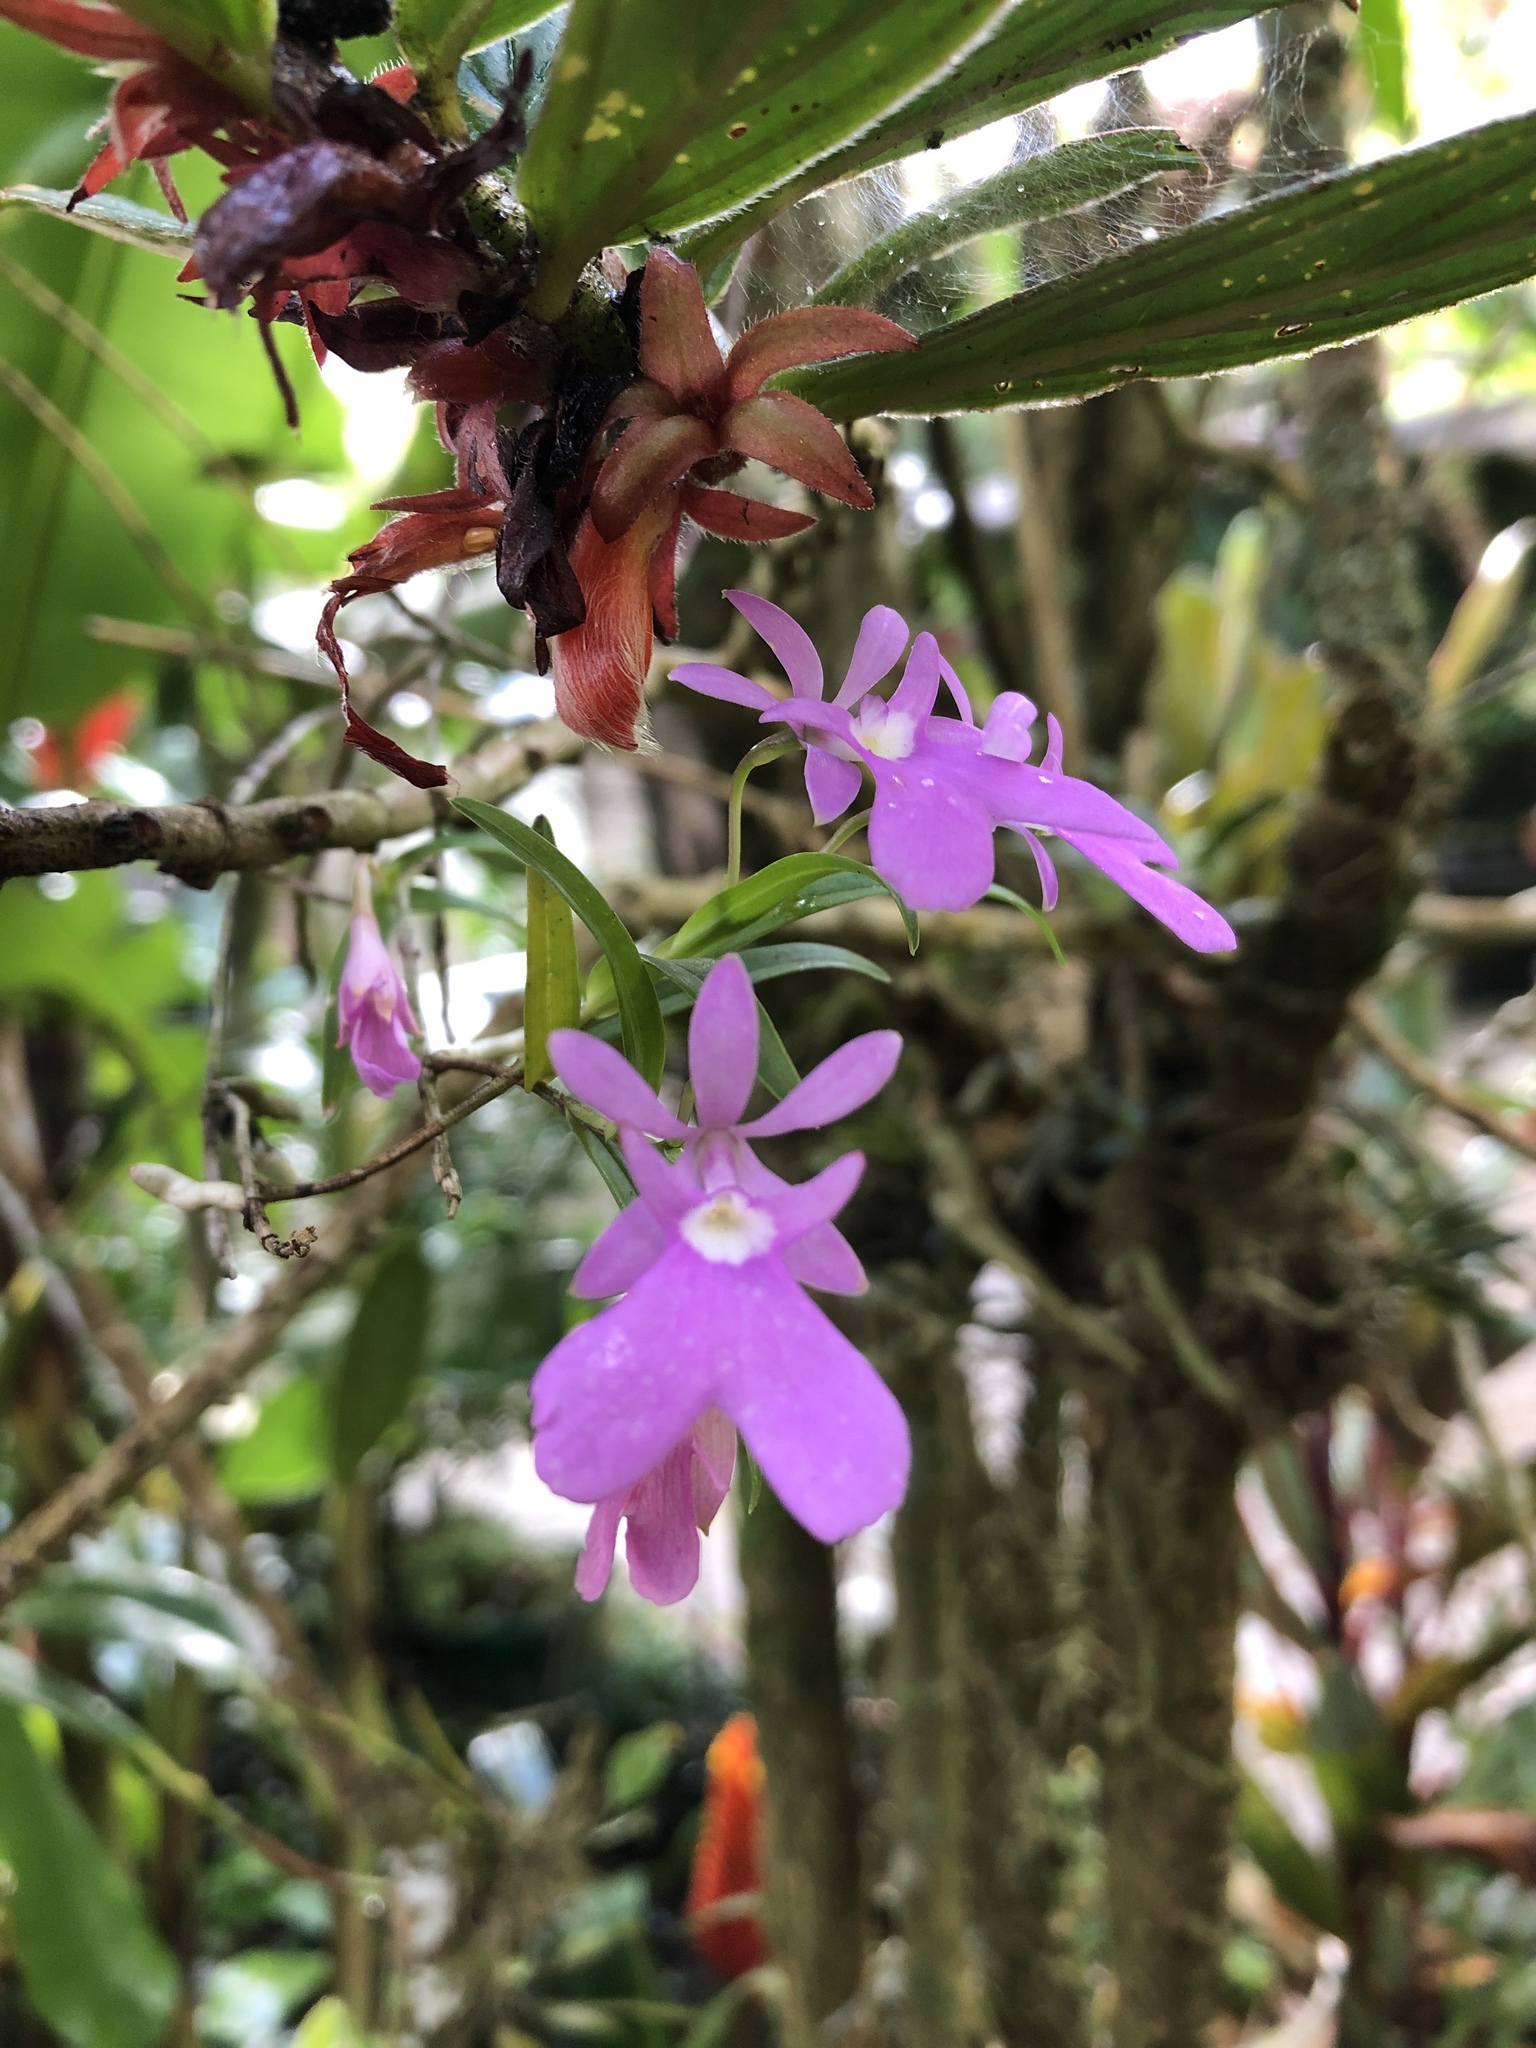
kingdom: Plantae
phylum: Tracheophyta
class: Liliopsida
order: Asparagales
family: Orchidaceae
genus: Epidendrum
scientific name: Epidendrum centropetalum
